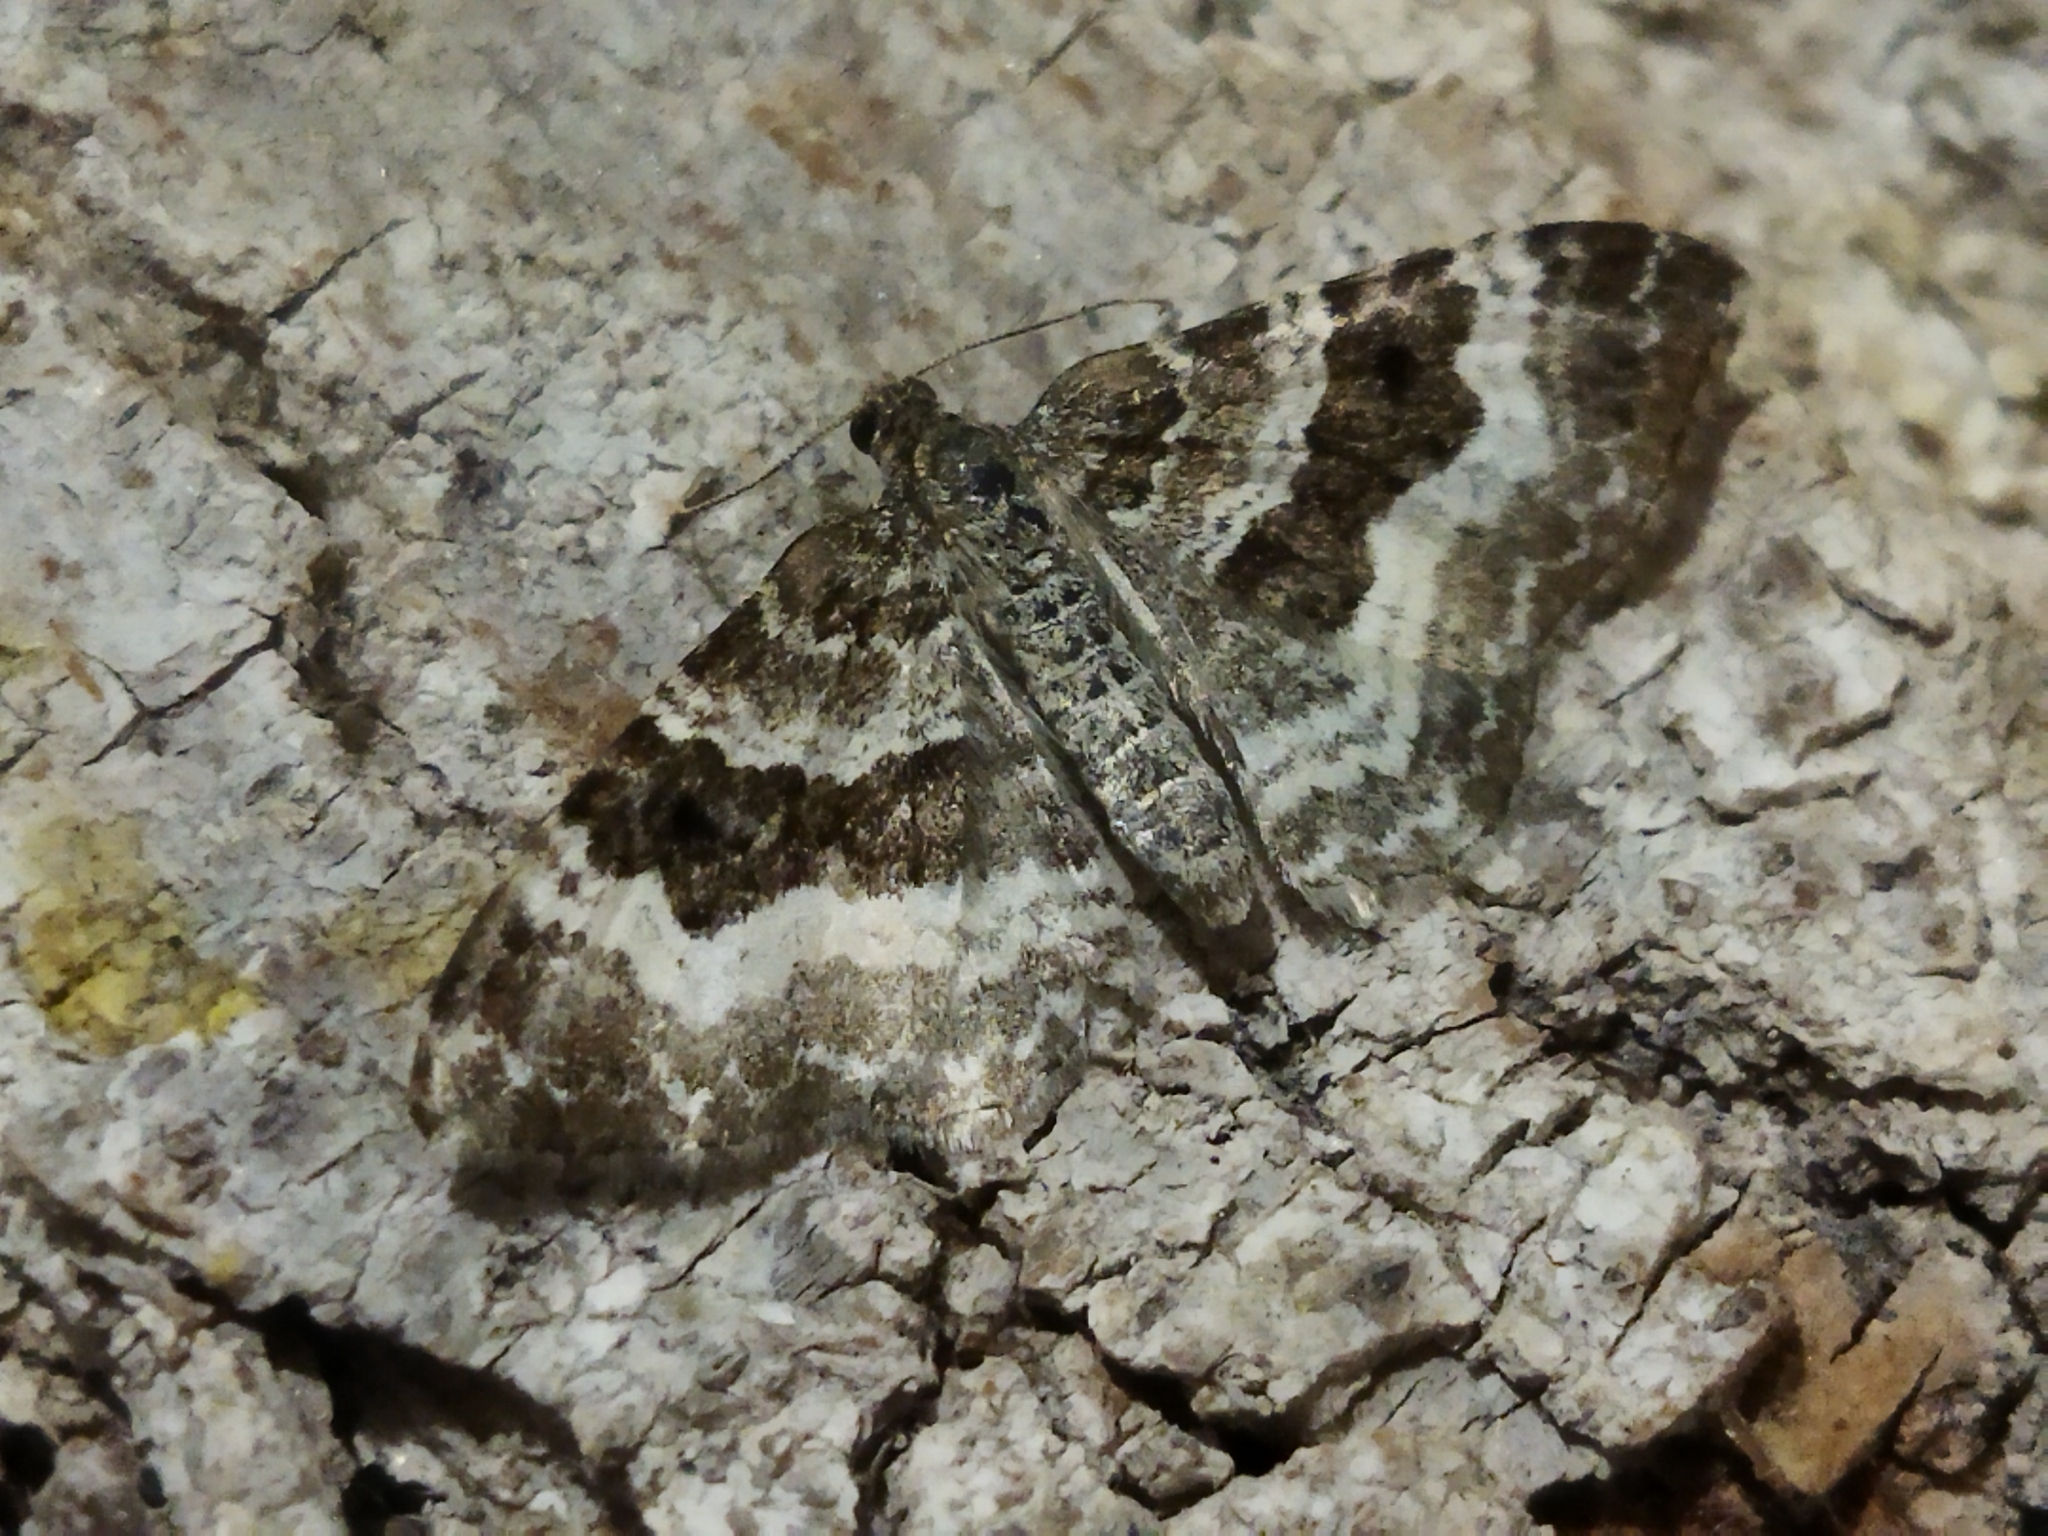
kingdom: Animalia
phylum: Arthropoda
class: Insecta
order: Lepidoptera
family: Geometridae
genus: Epirrhoe
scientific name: Epirrhoe alternata
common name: Common carpet
